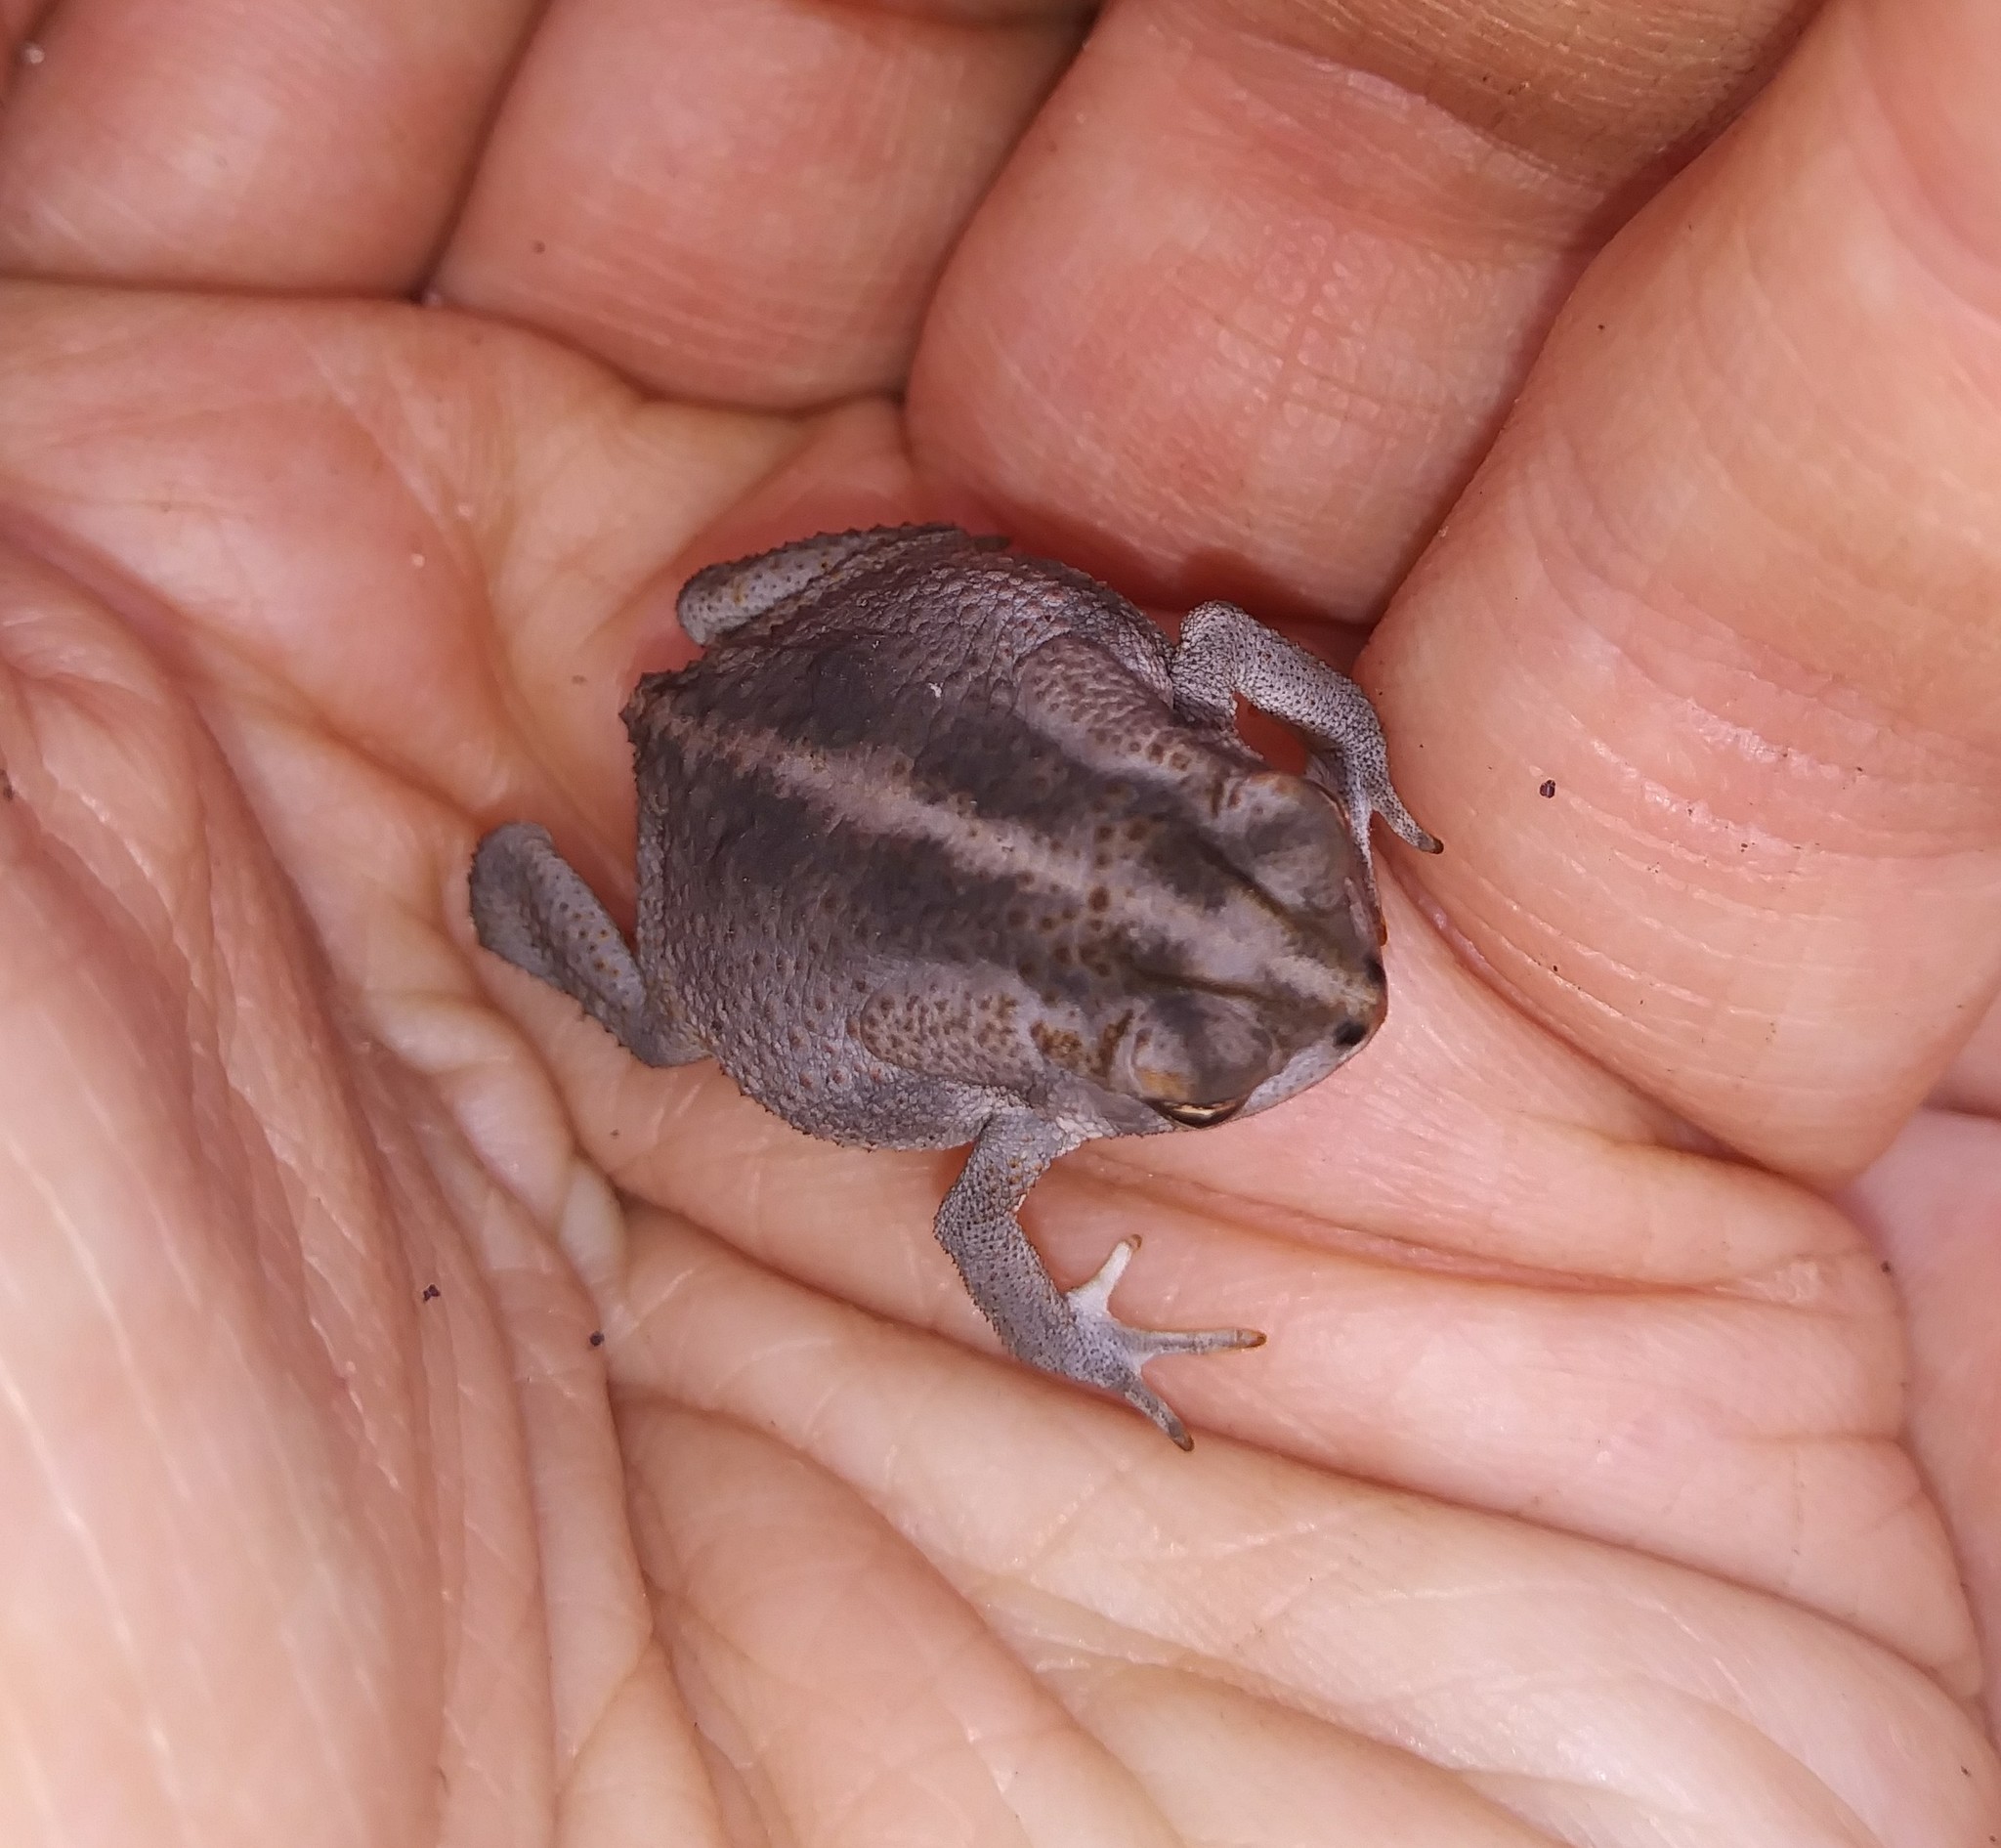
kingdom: Animalia
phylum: Chordata
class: Amphibia
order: Anura
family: Bufonidae
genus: Anaxyrus
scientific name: Anaxyrus quercicus
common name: Oak toad
